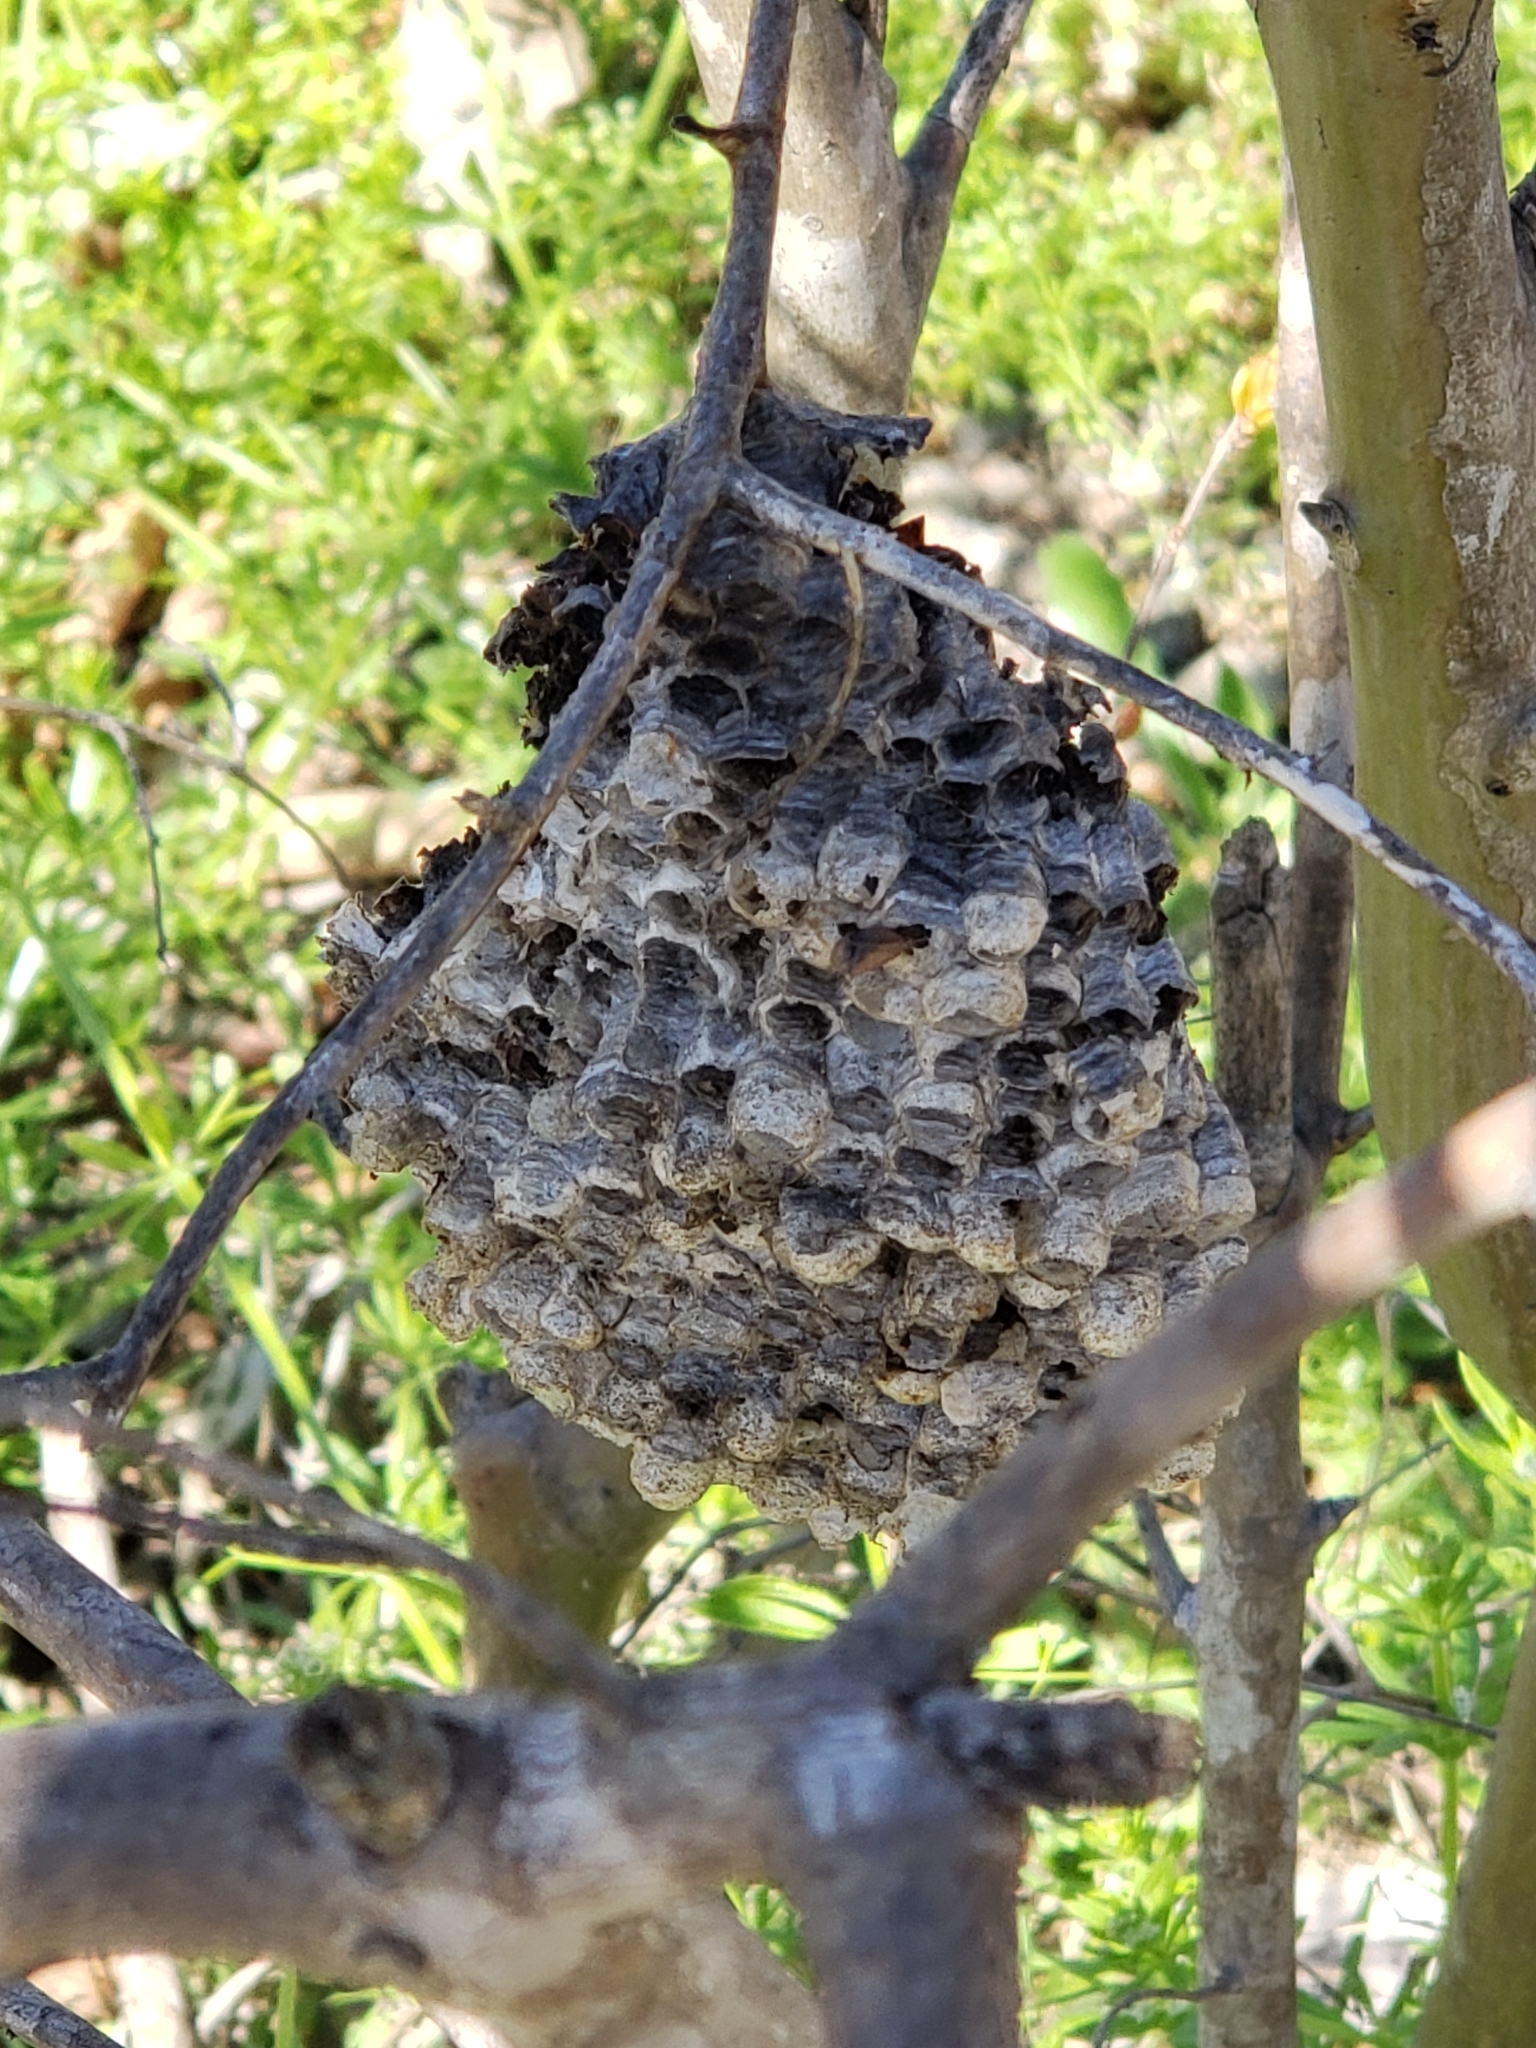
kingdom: Animalia
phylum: Arthropoda
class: Insecta
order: Hymenoptera
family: Eumenidae
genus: Polistes
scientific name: Polistes
